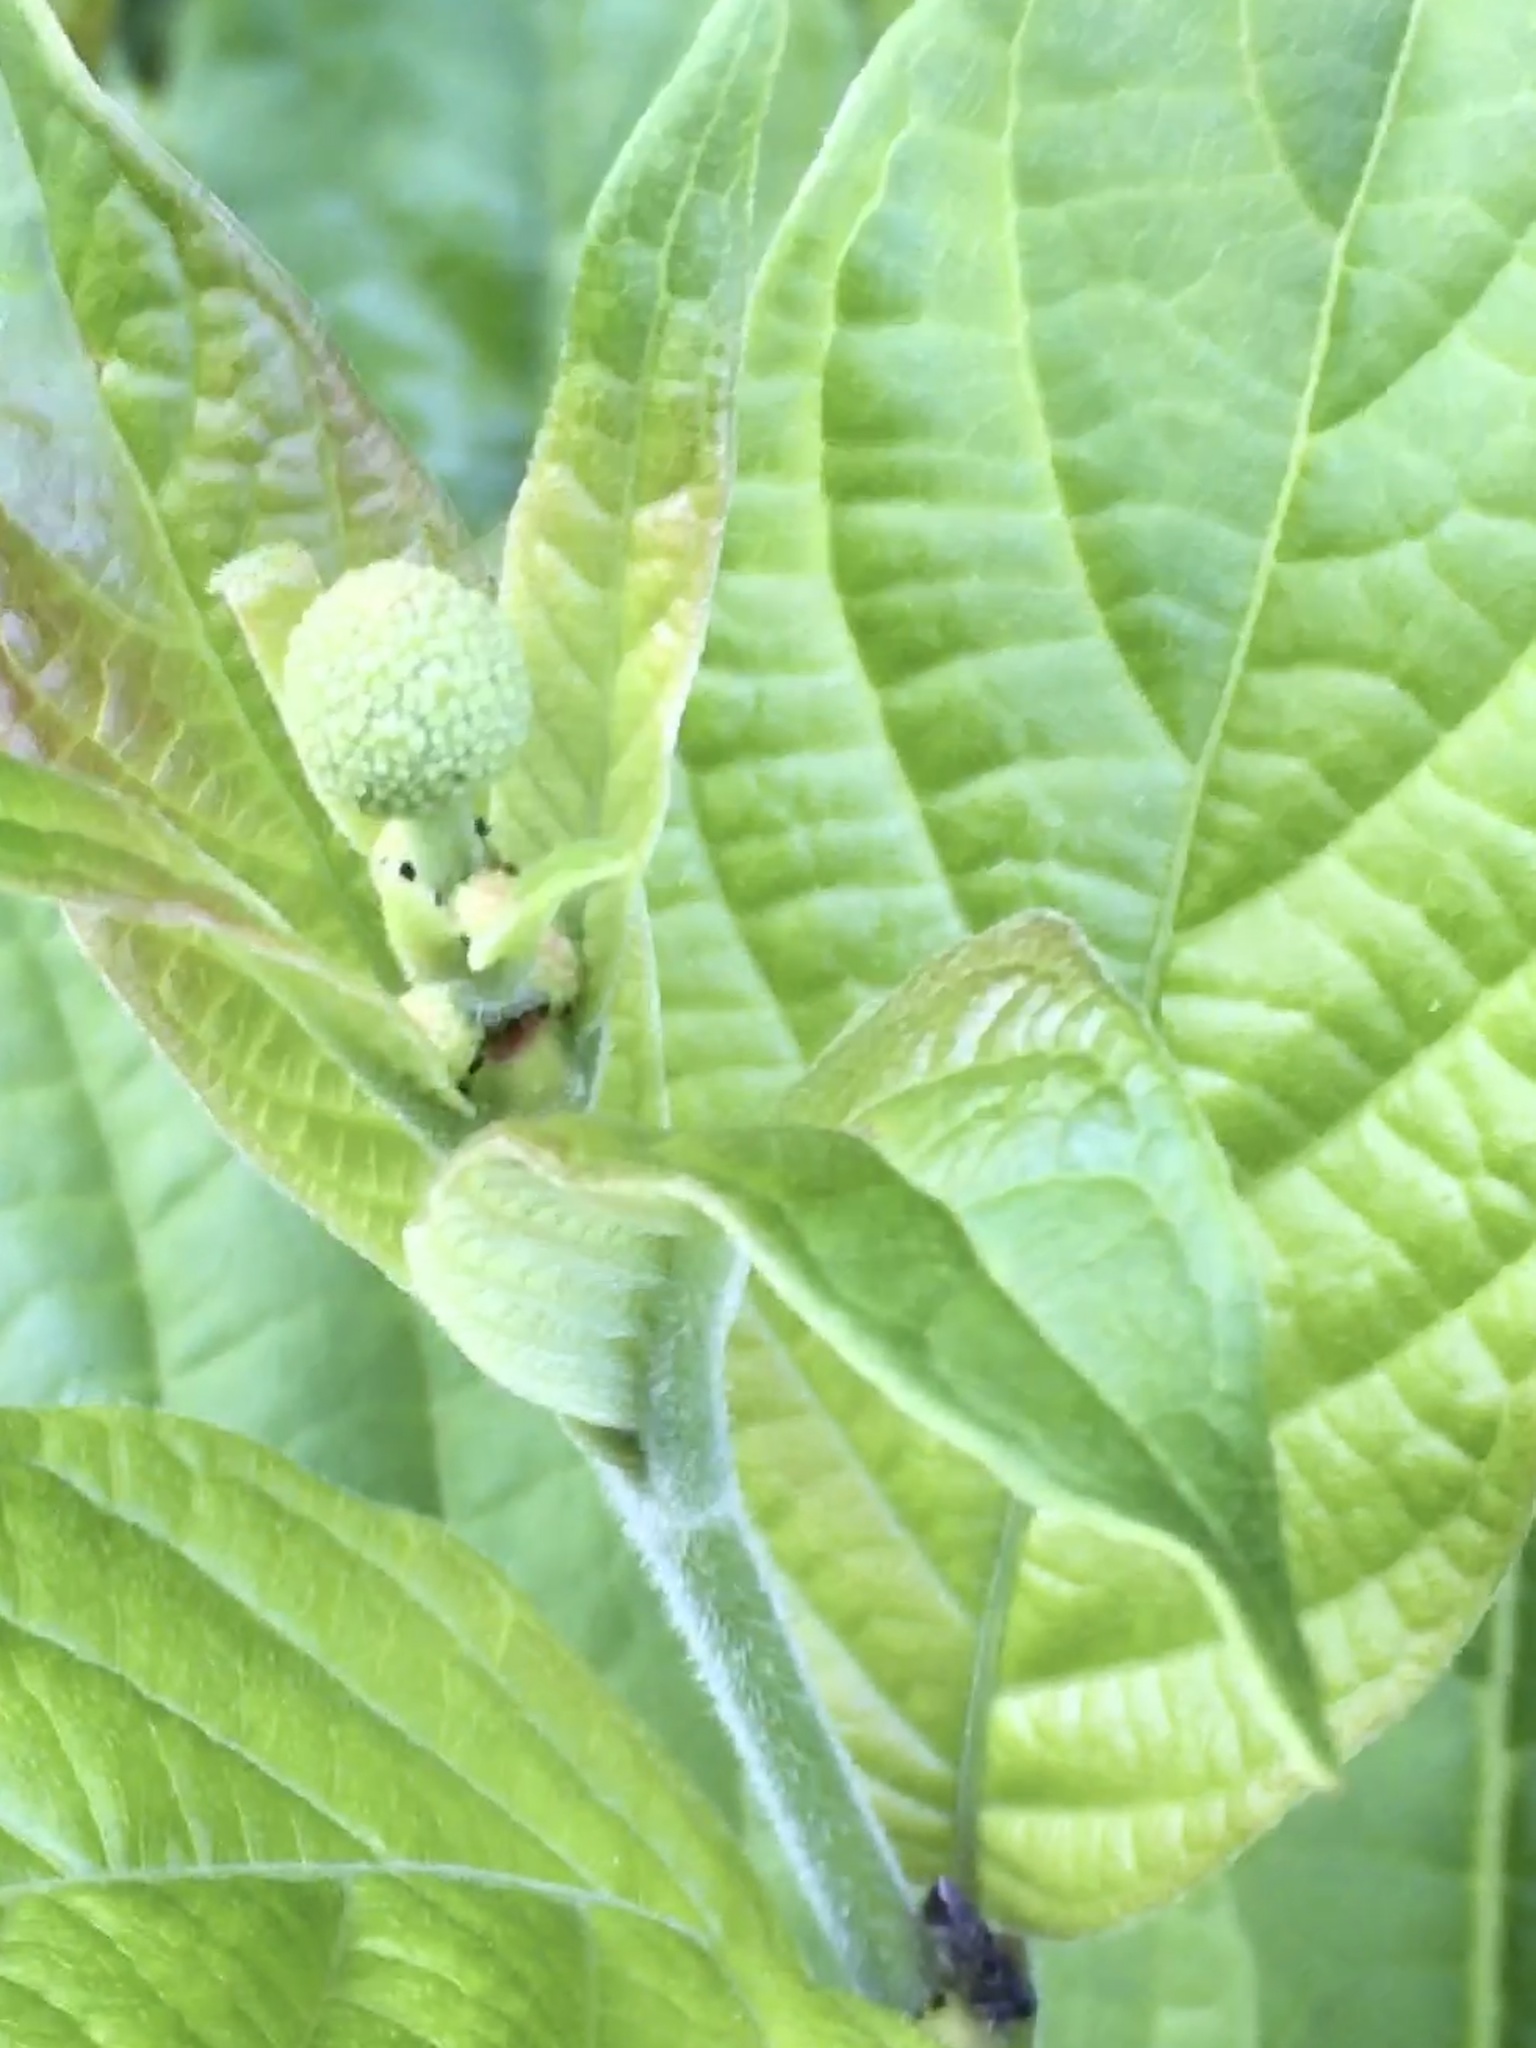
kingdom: Plantae
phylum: Tracheophyta
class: Magnoliopsida
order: Gentianales
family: Rubiaceae
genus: Cephalanthus
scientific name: Cephalanthus occidentalis
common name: Button-willow
